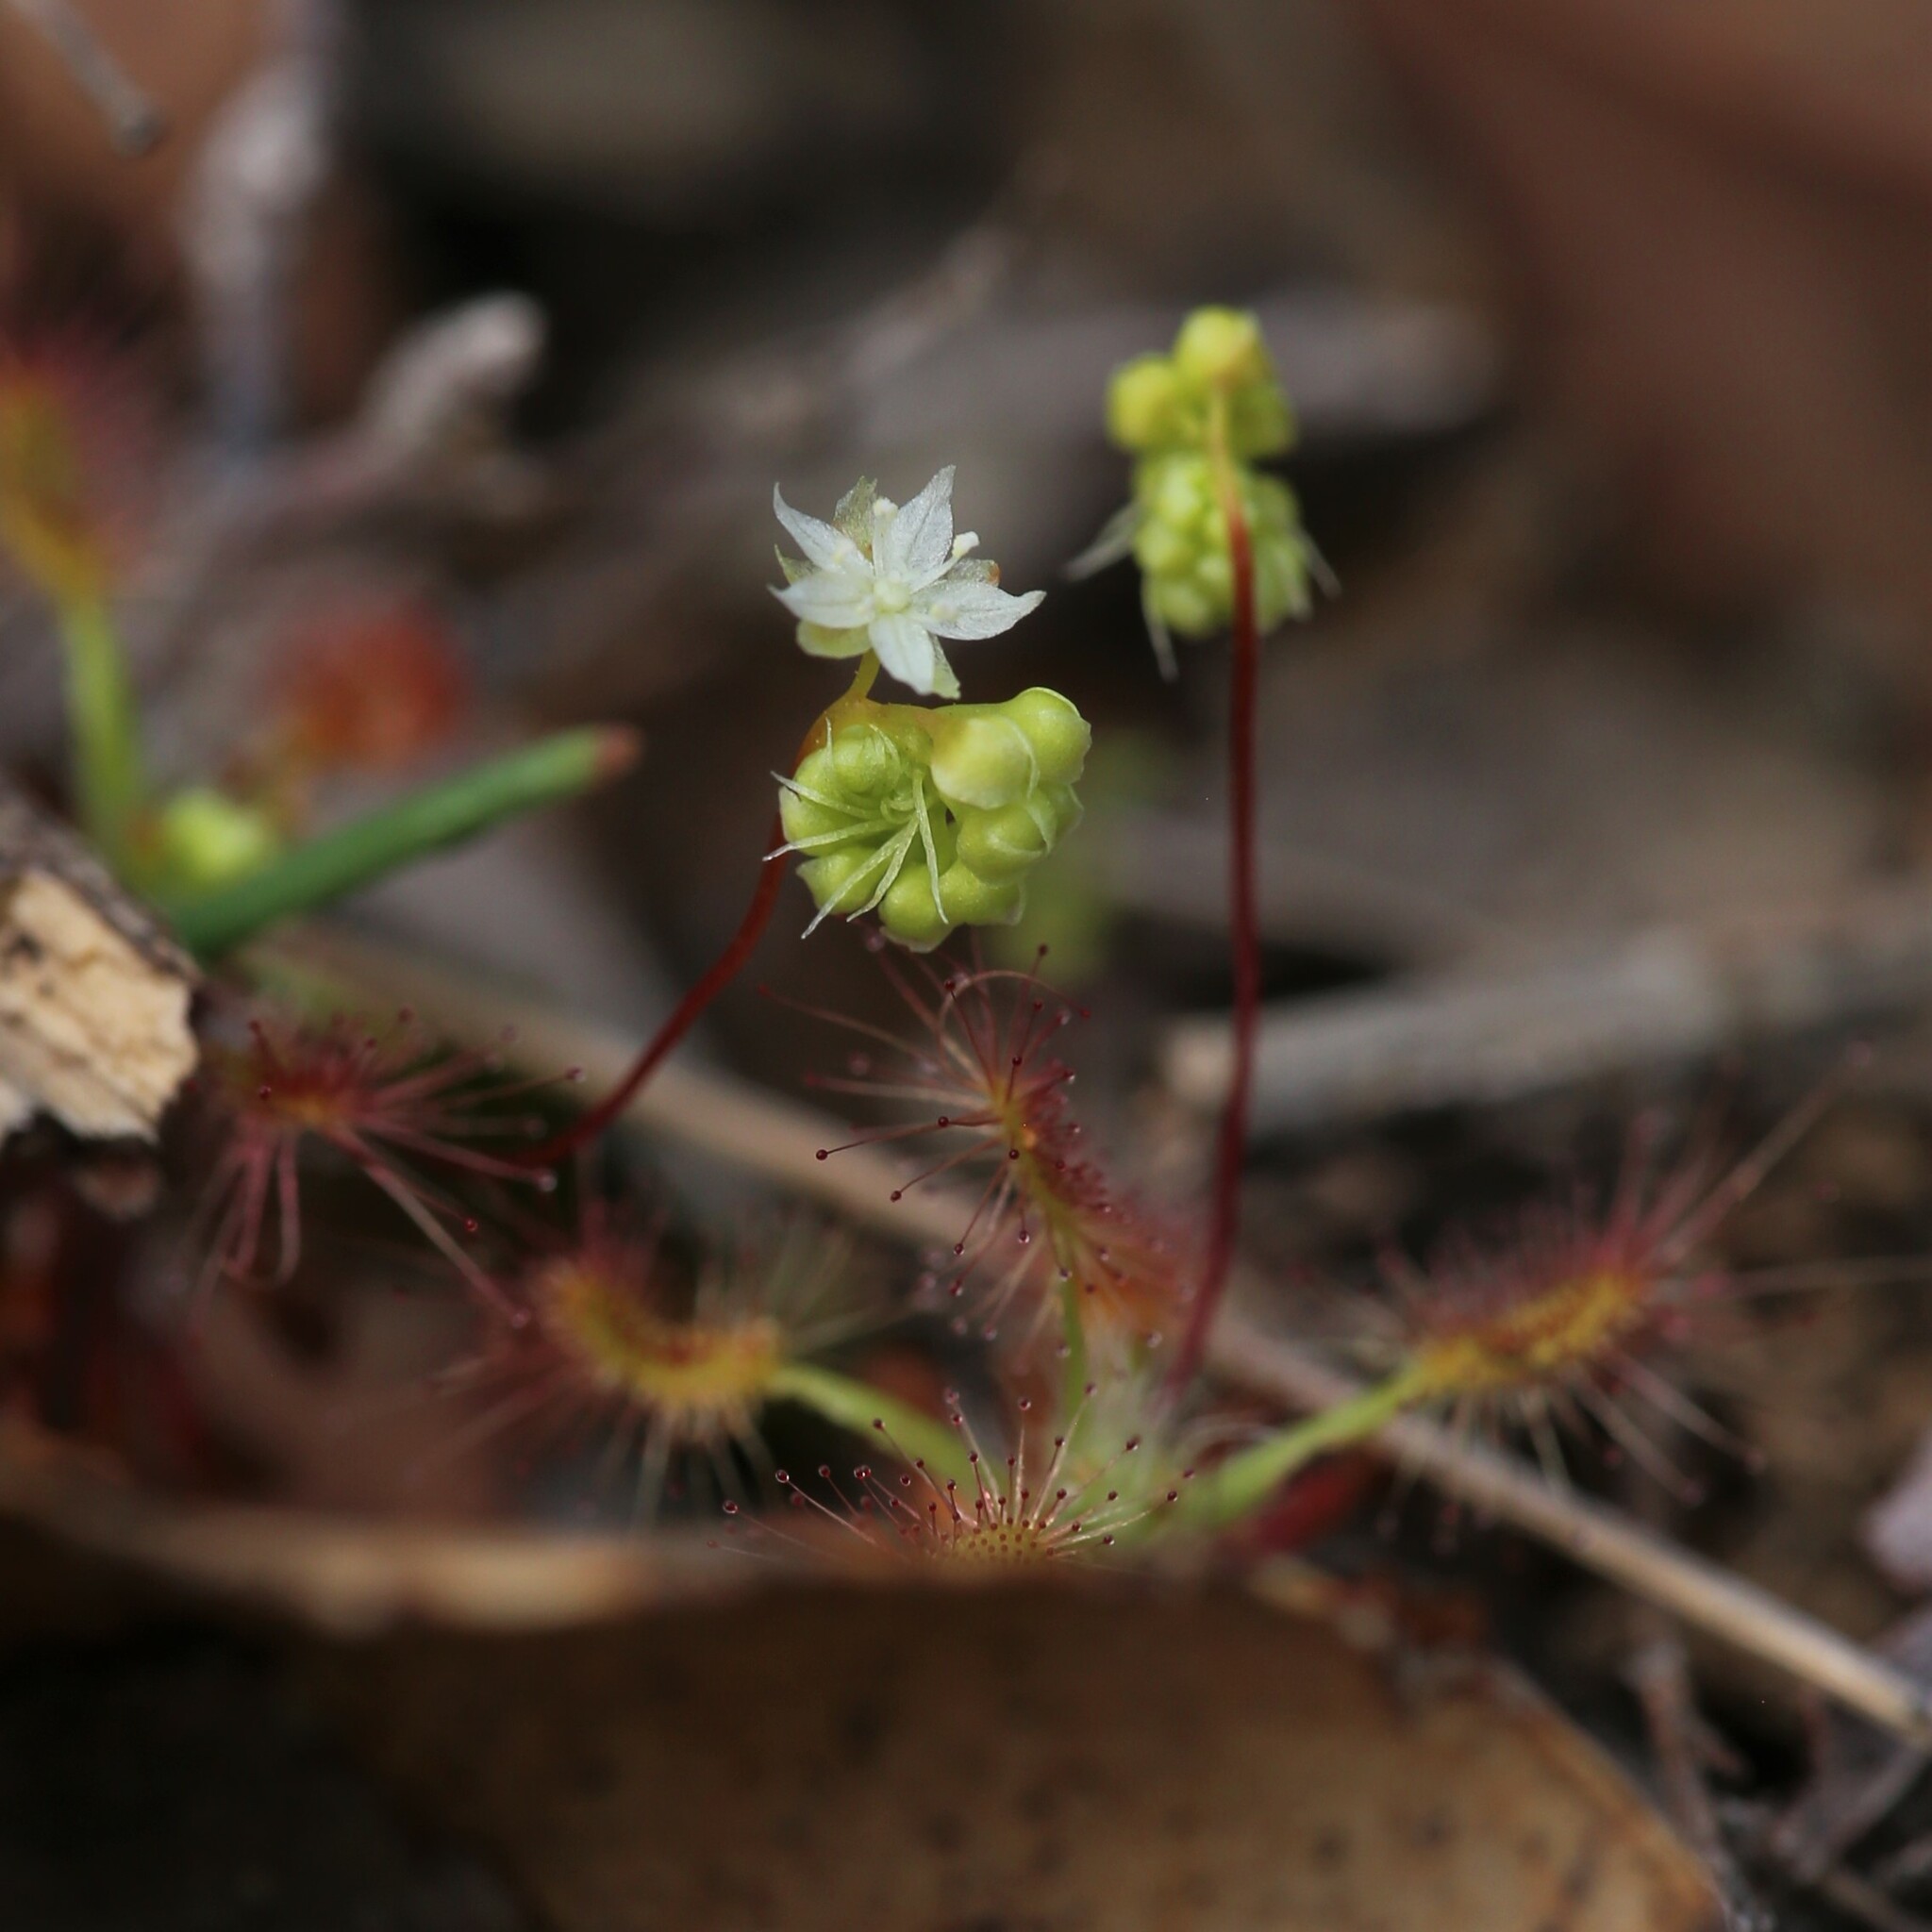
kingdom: Plantae
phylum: Tracheophyta
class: Magnoliopsida
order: Caryophyllales
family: Droseraceae
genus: Drosera
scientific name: Drosera paleacea
